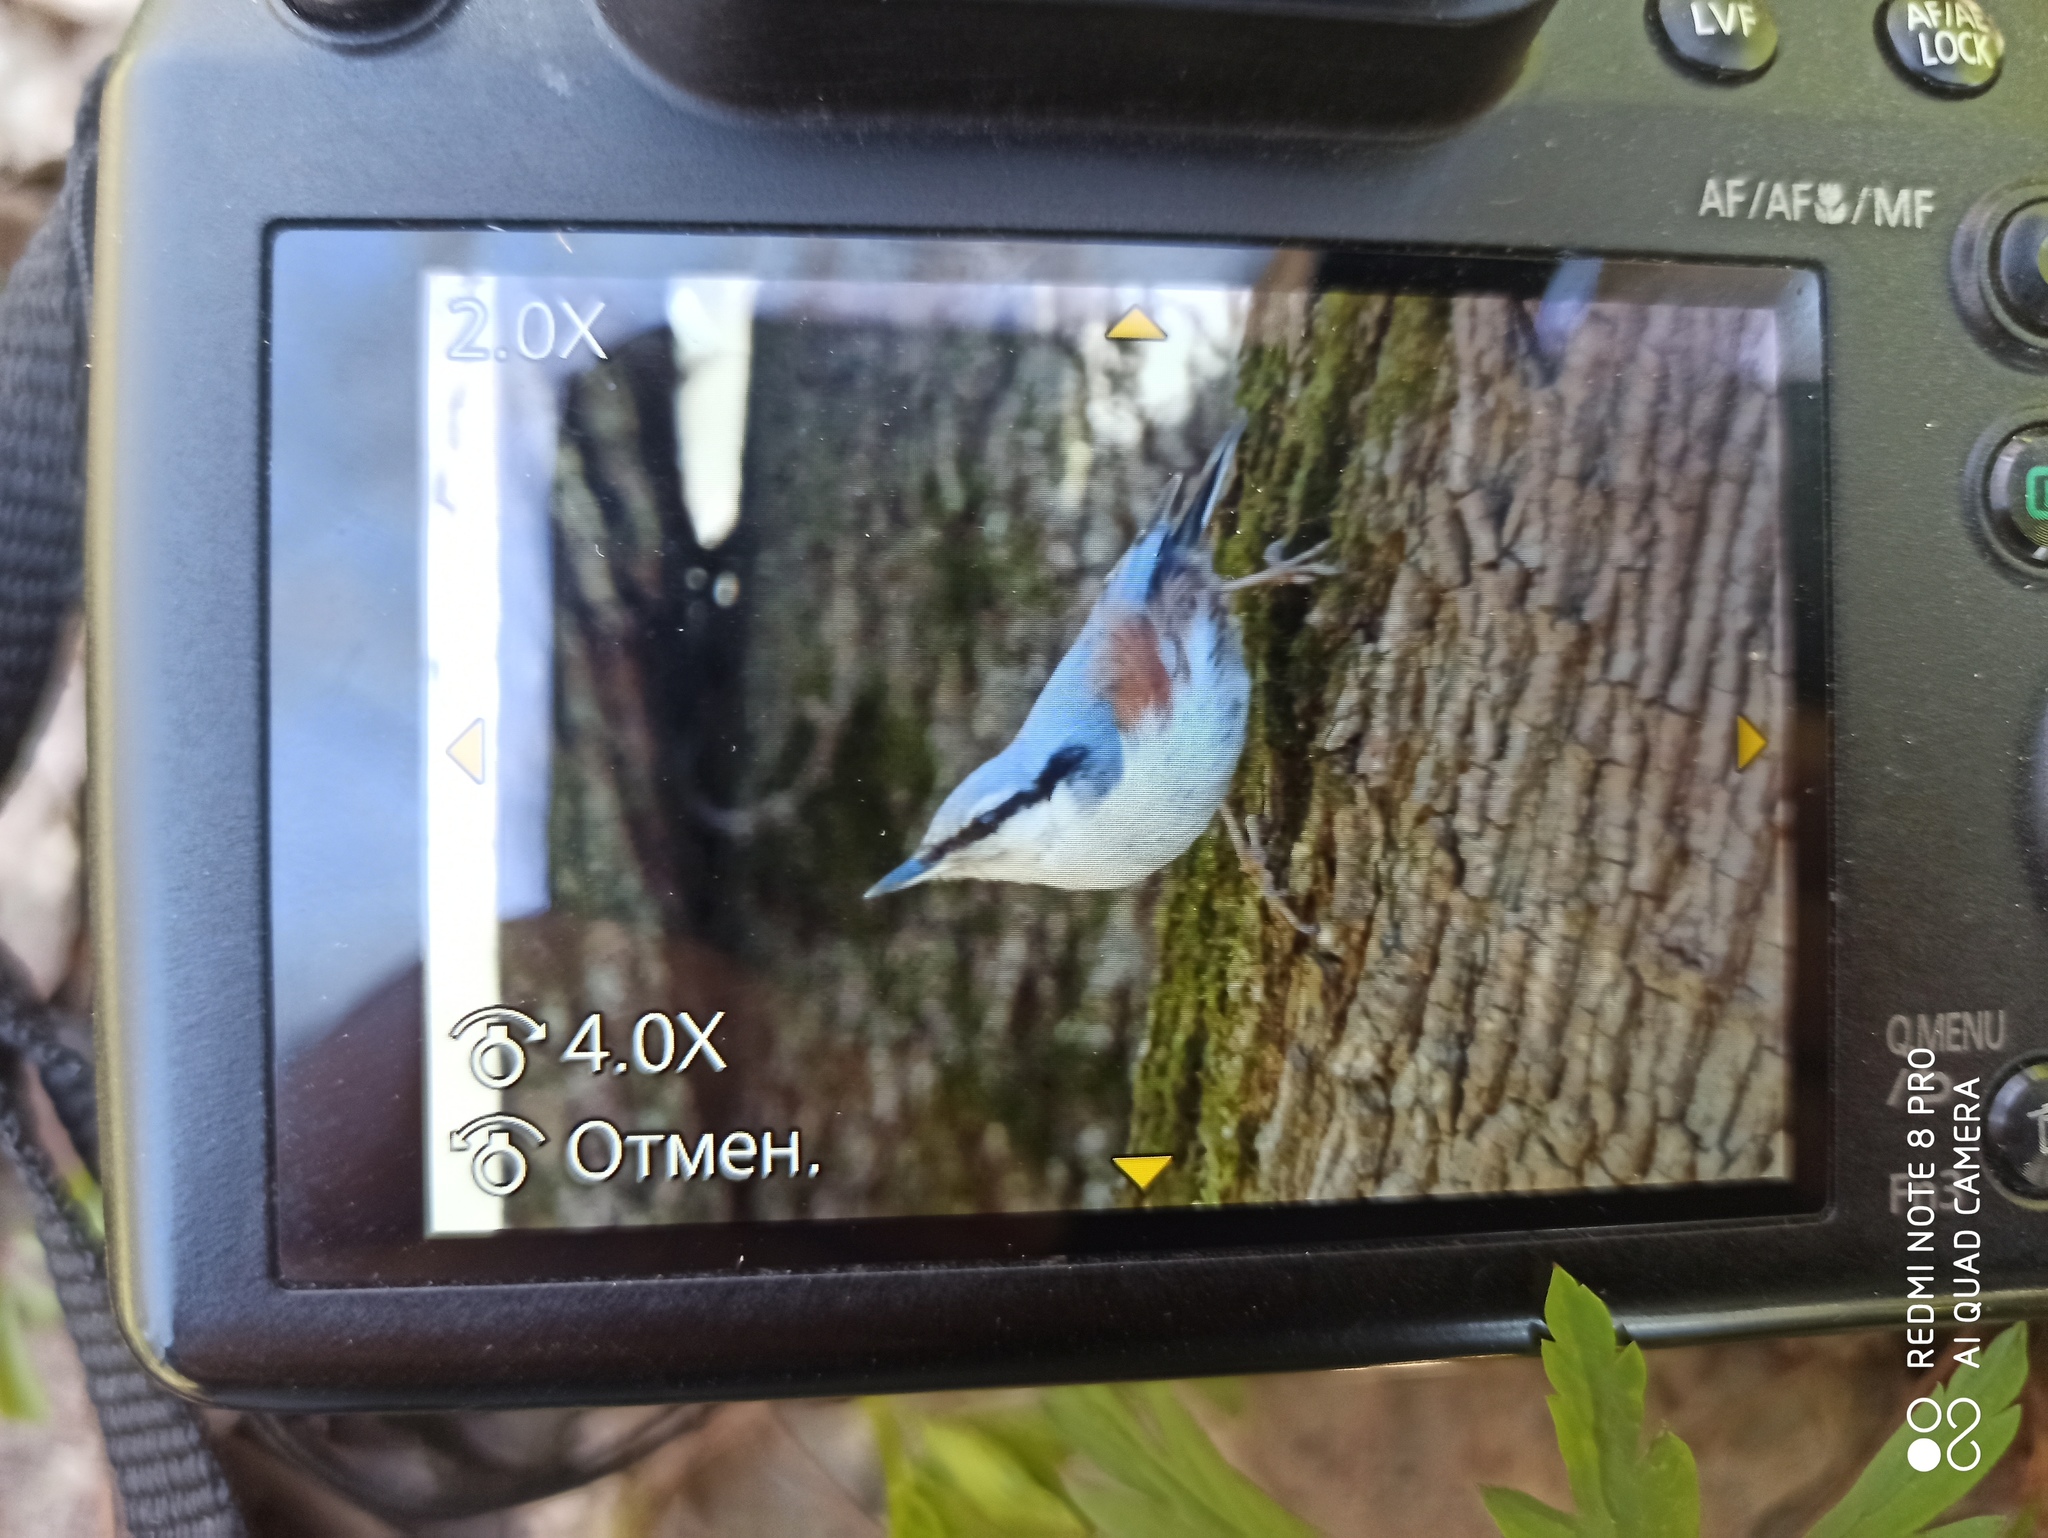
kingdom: Animalia
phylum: Chordata
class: Aves
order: Passeriformes
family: Sittidae
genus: Sitta
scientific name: Sitta europaea
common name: Eurasian nuthatch
